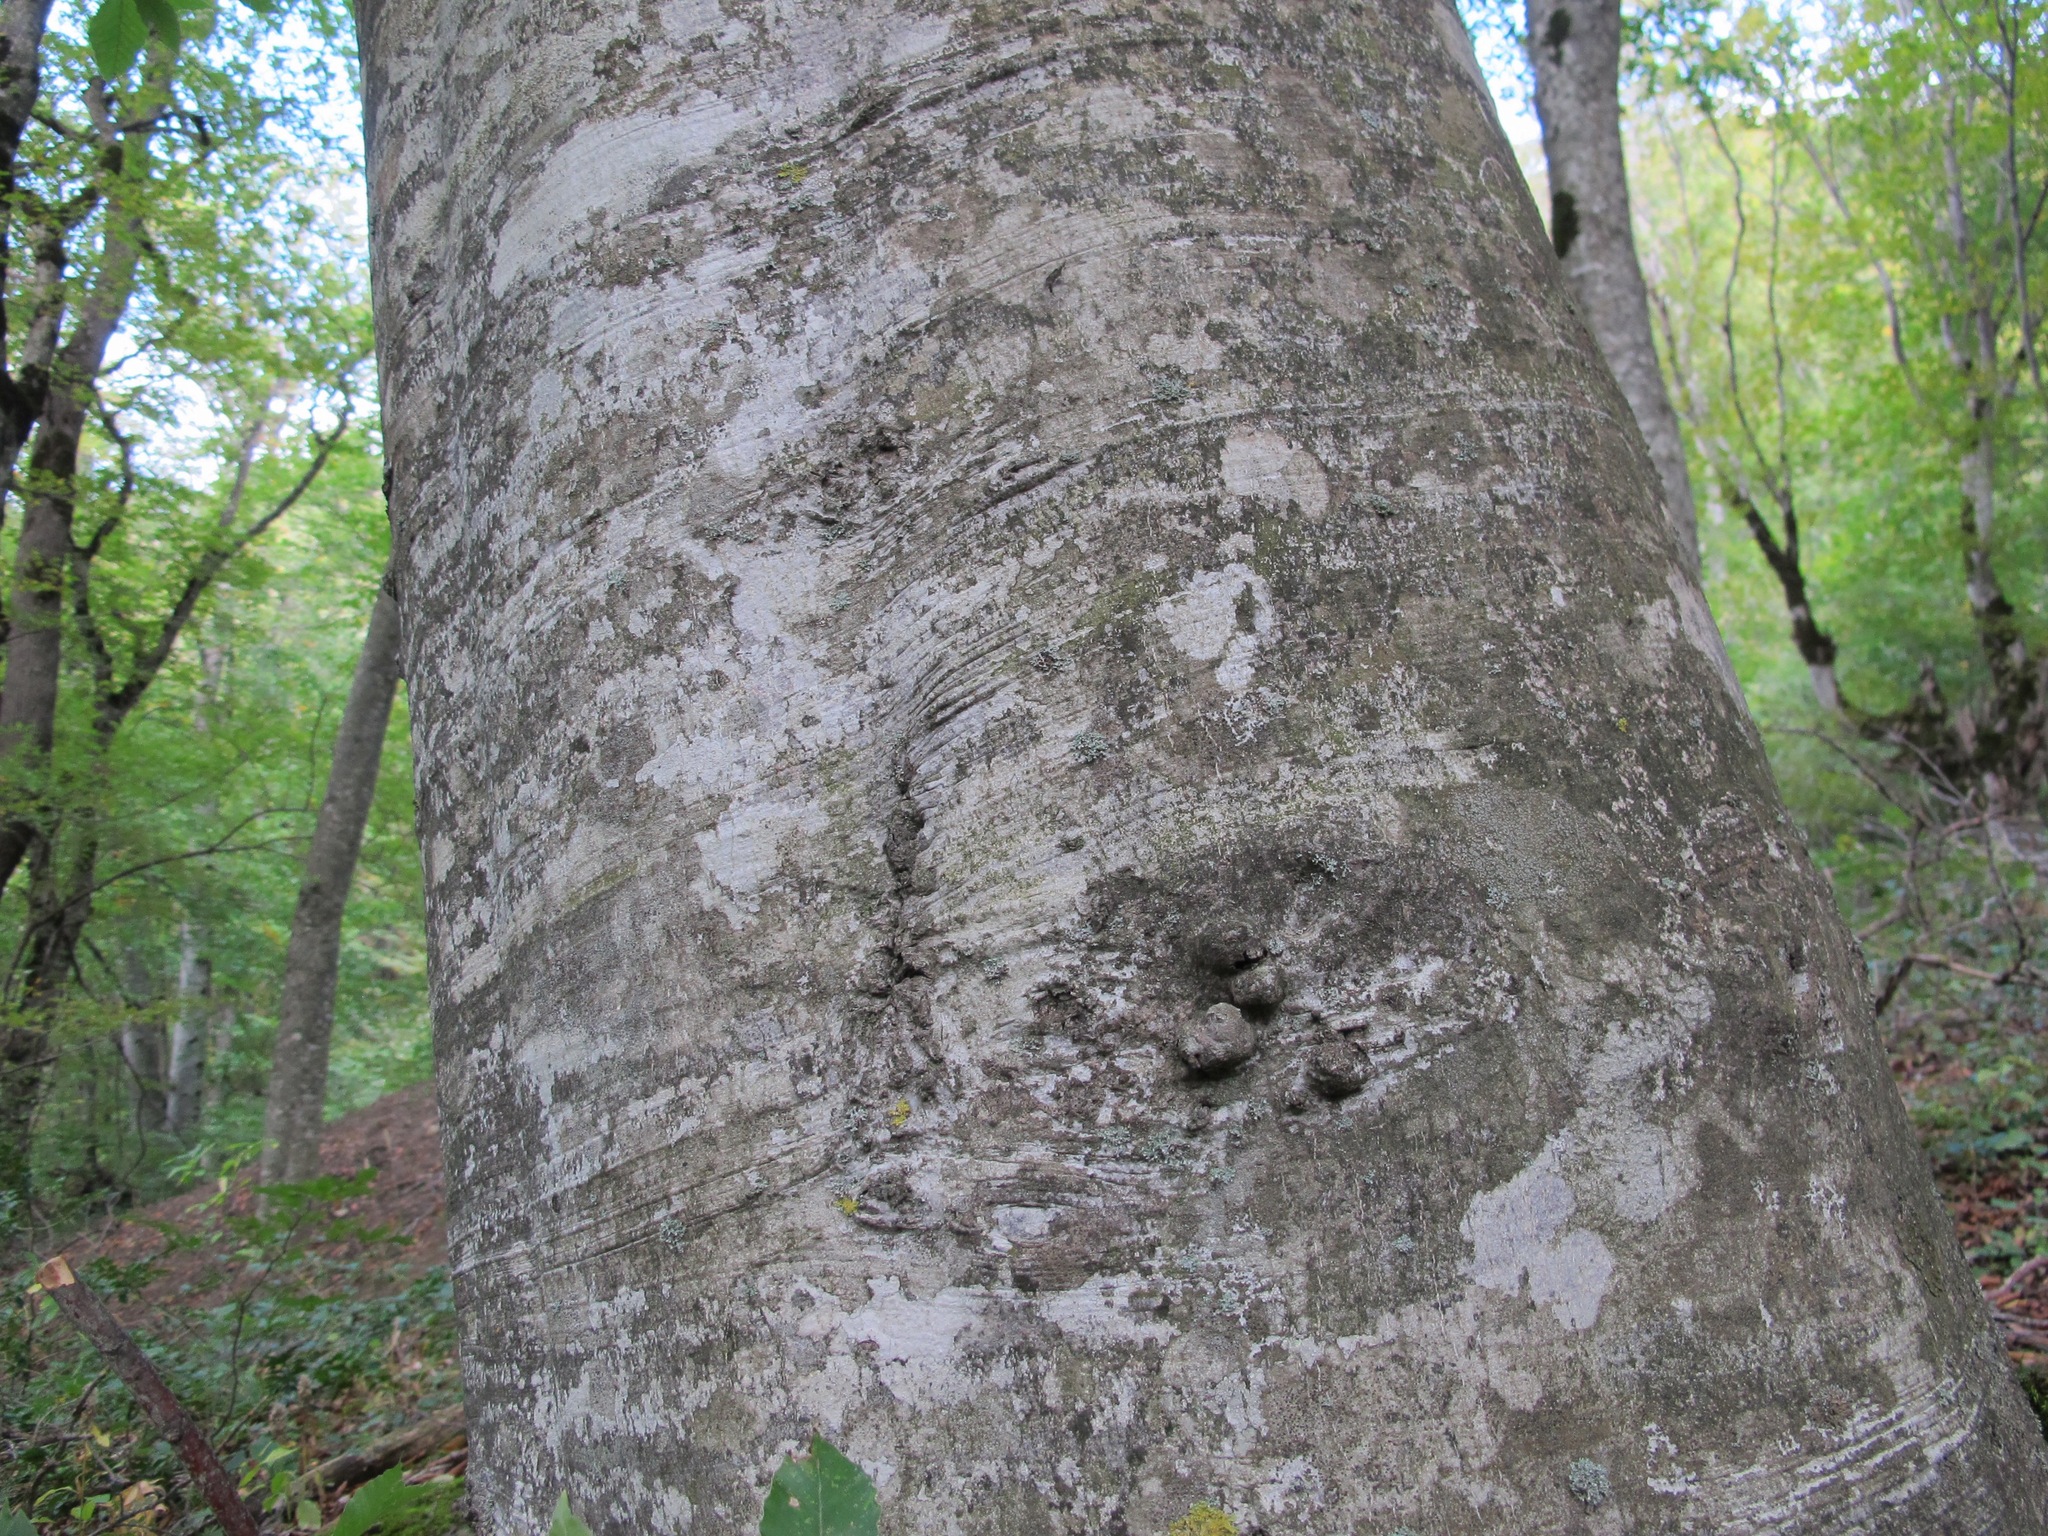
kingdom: Plantae
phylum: Tracheophyta
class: Magnoliopsida
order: Fagales
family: Fagaceae
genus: Fagus
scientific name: Fagus orientalis
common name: Oriental beech
